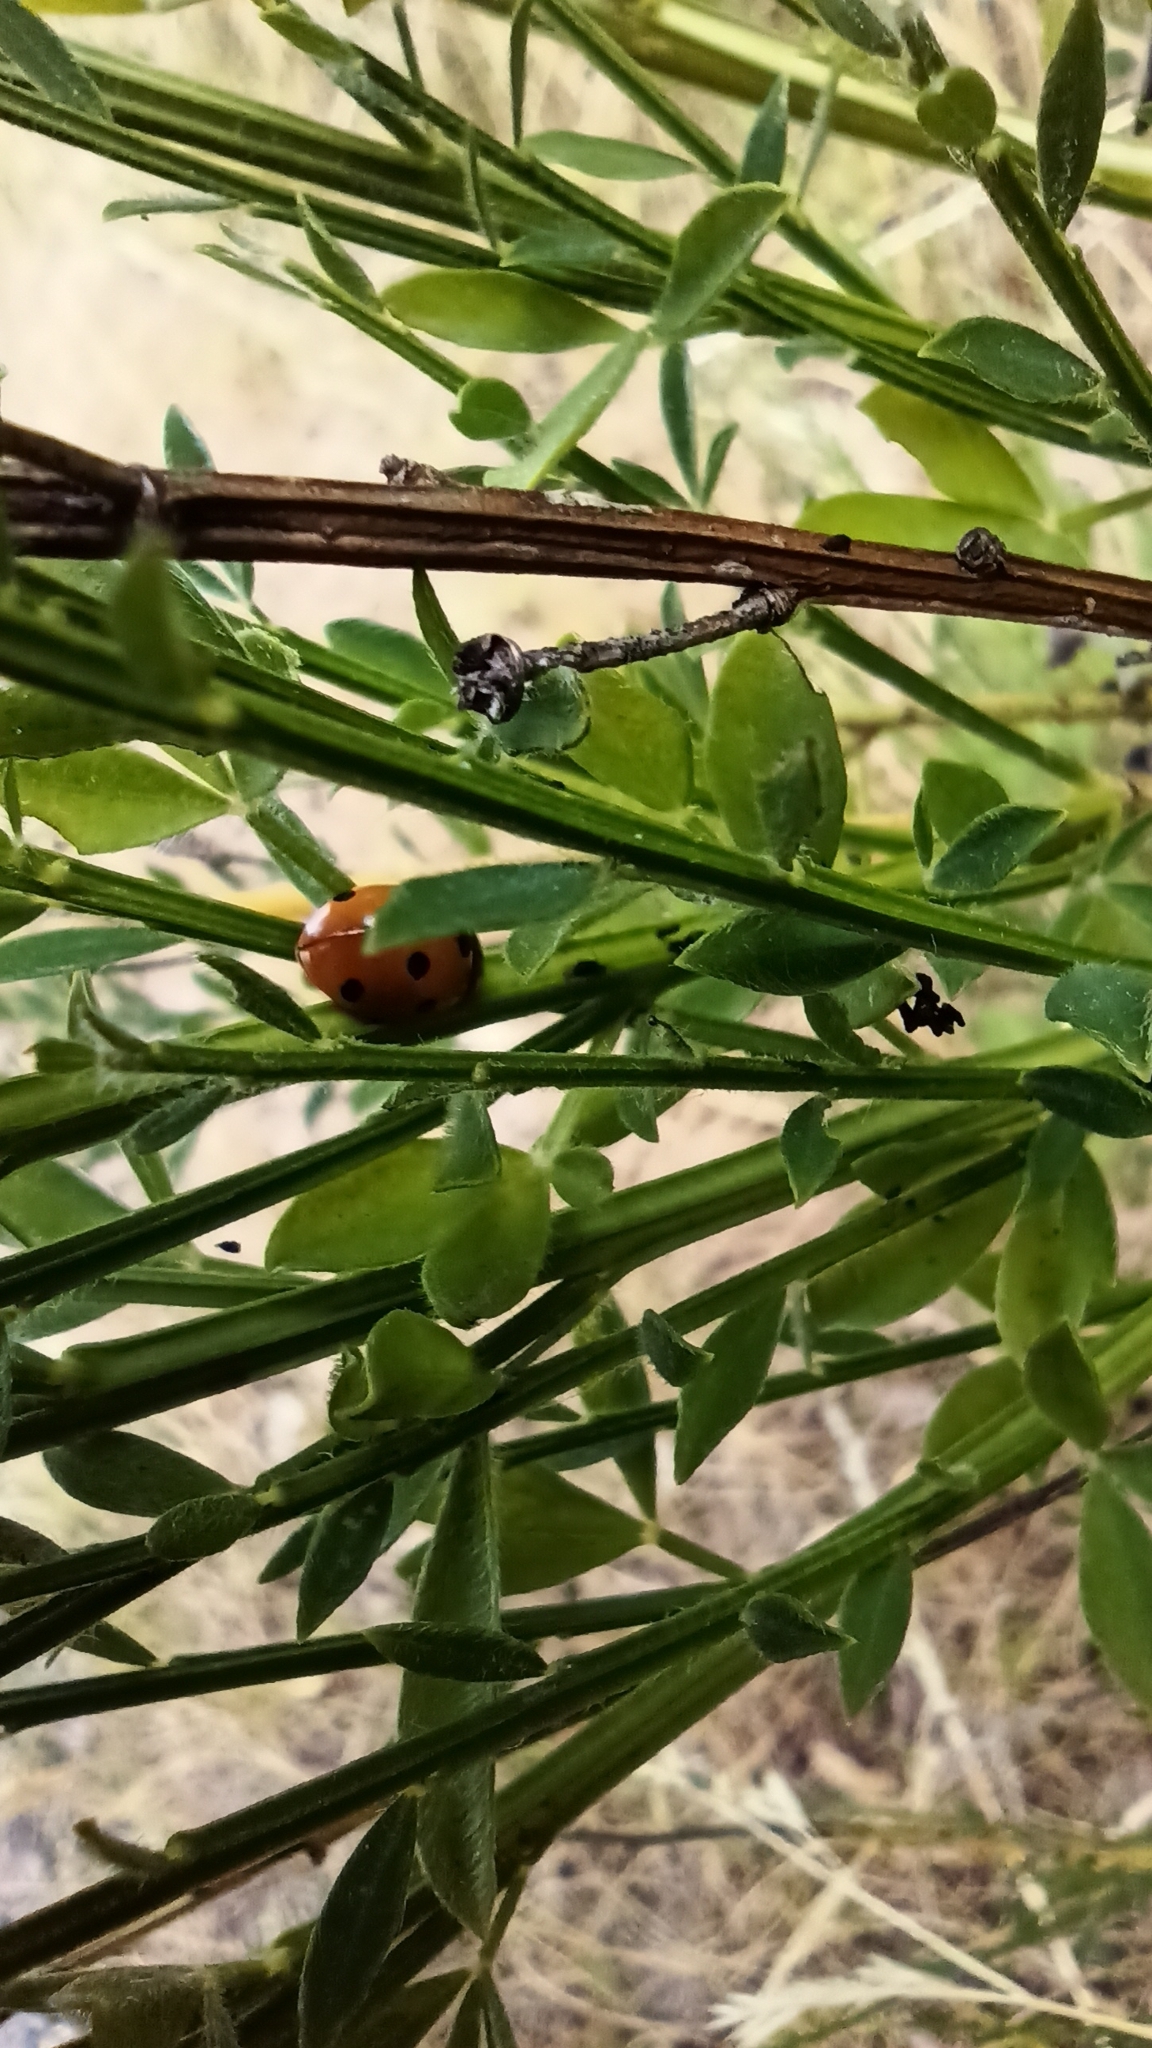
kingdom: Animalia
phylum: Arthropoda
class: Insecta
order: Coleoptera
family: Coccinellidae
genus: Coccinella
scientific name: Coccinella septempunctata
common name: Sevenspotted lady beetle
